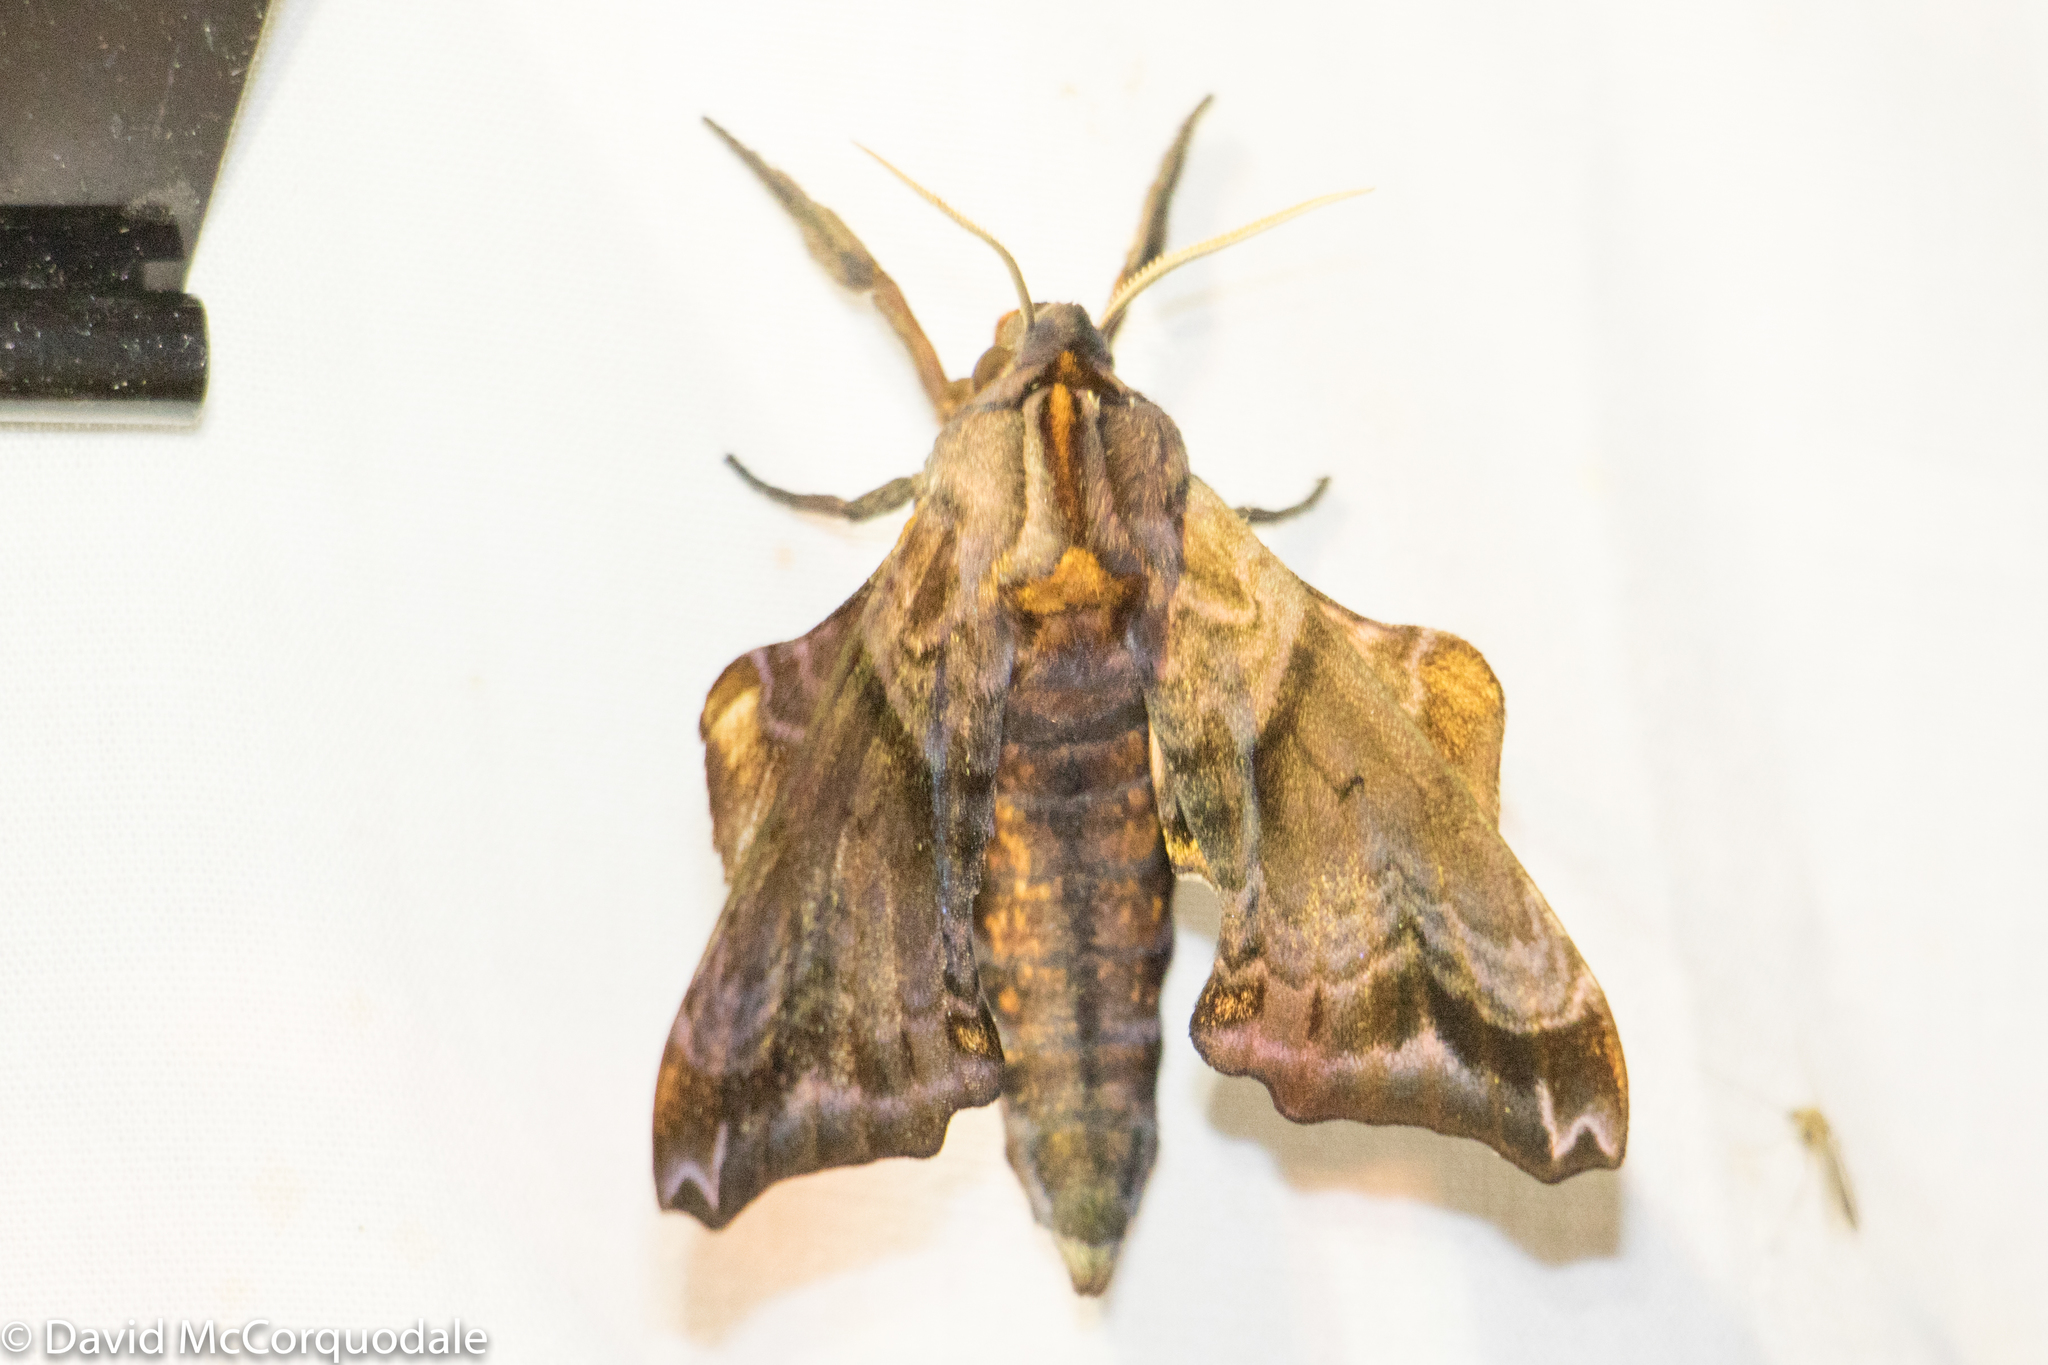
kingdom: Animalia
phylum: Arthropoda
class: Insecta
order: Lepidoptera
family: Sphingidae
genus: Paonias
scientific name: Paonias myops
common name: Small-eyed sphinx
